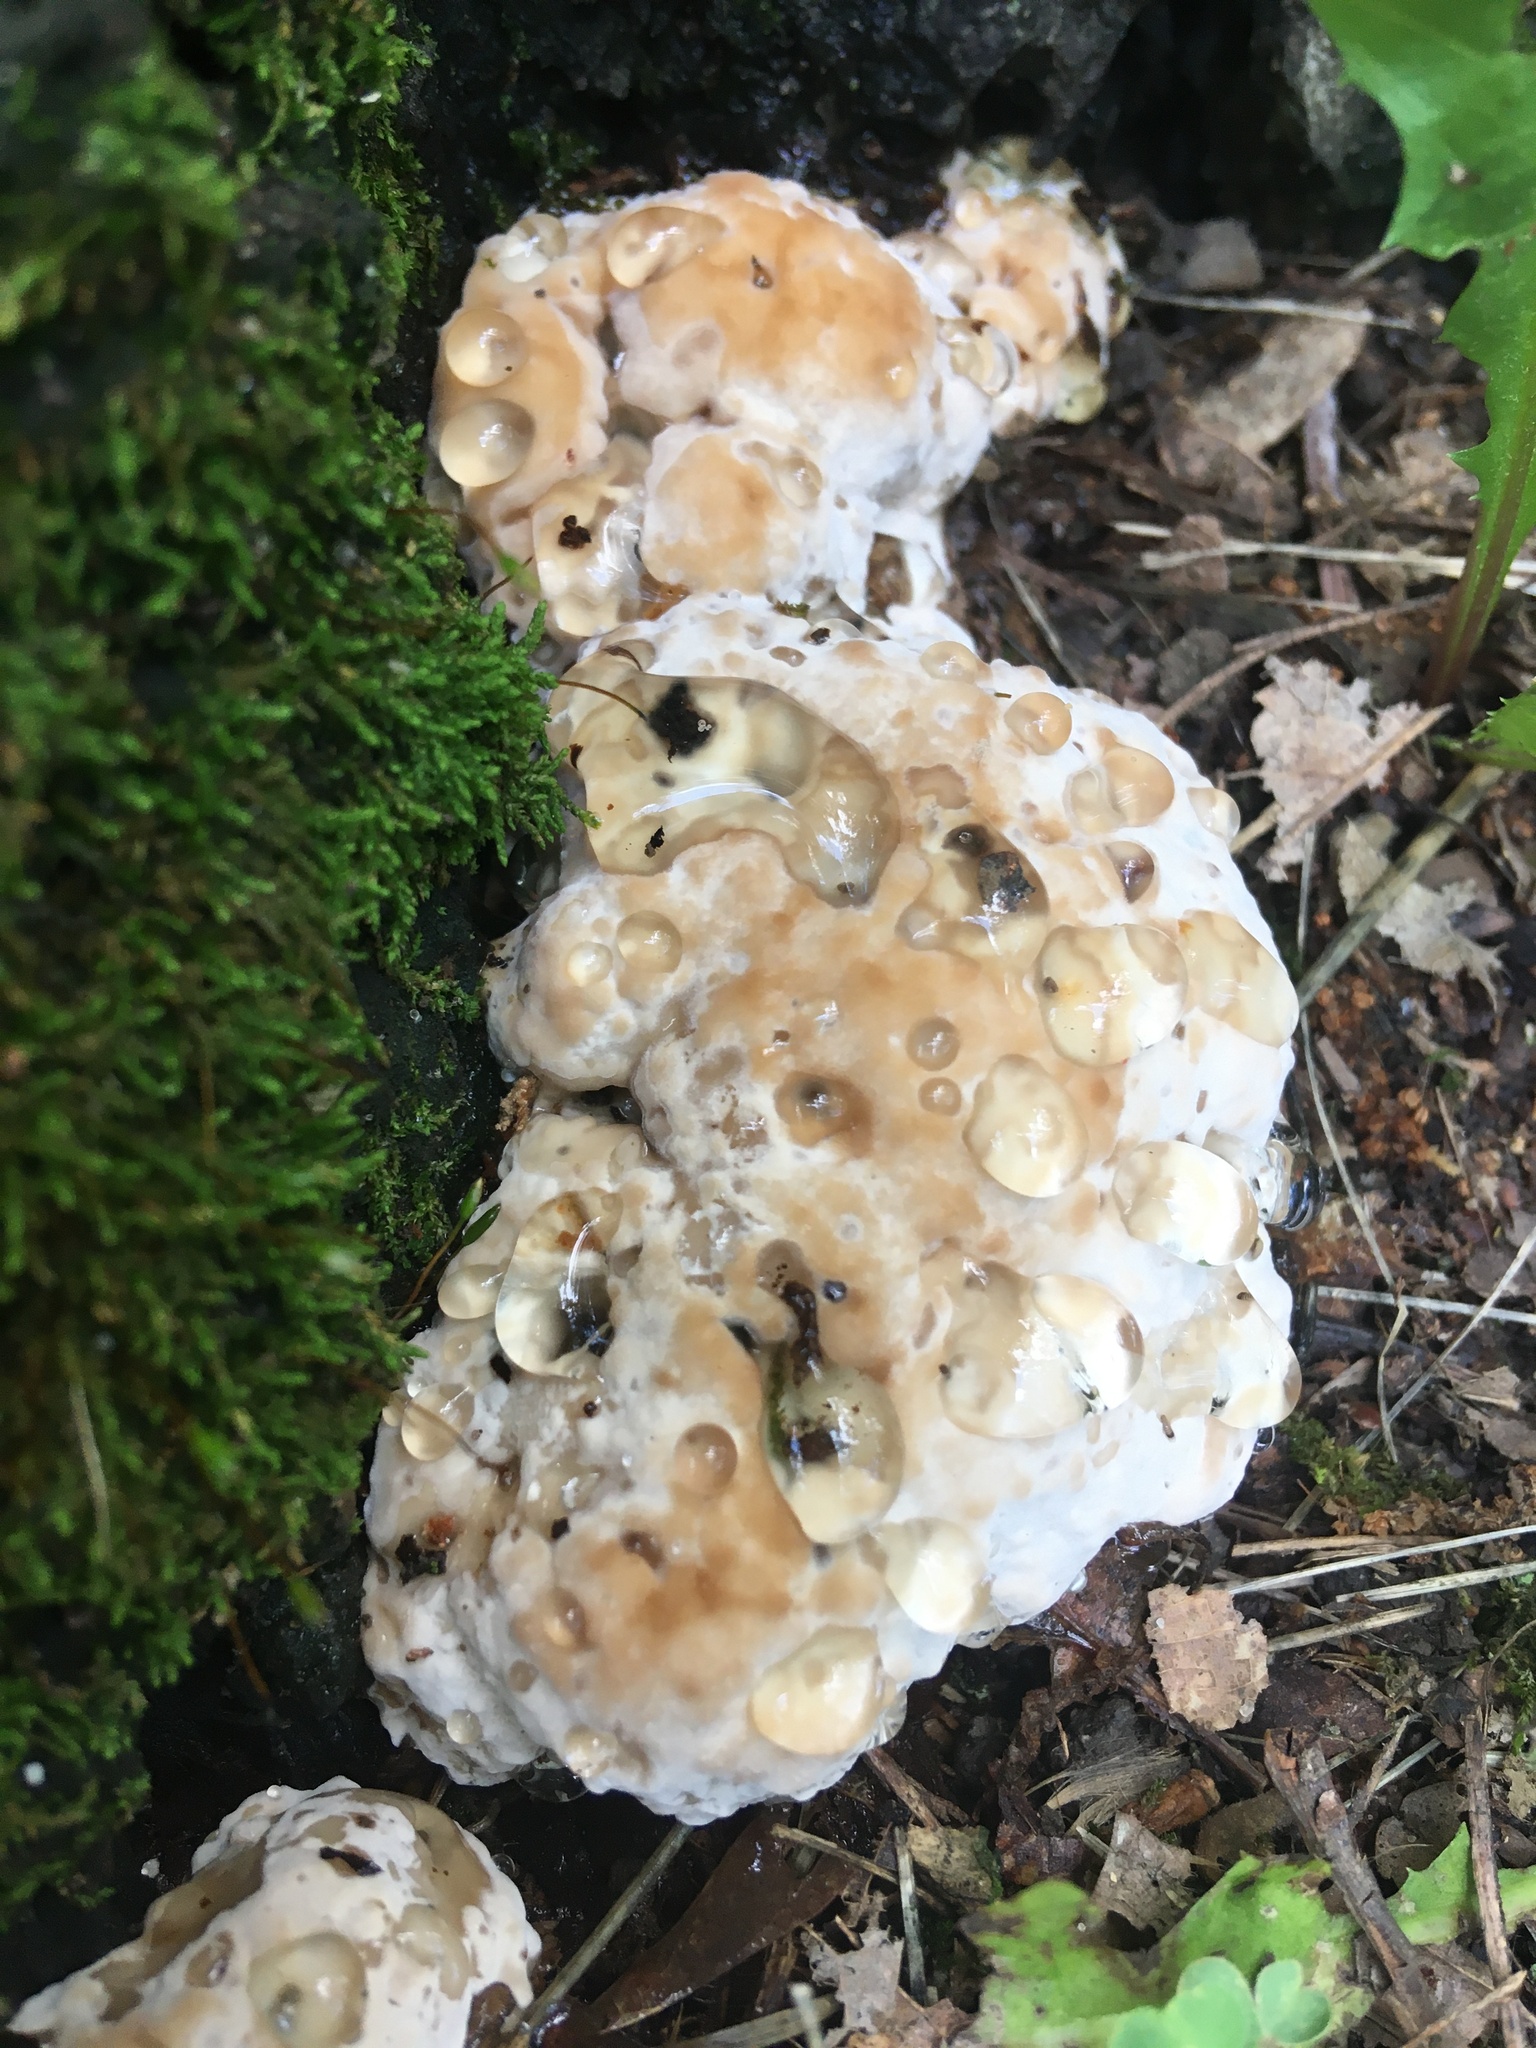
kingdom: Fungi
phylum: Basidiomycota
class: Agaricomycetes
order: Polyporales
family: Fomitopsidaceae
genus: Niveoporofomes
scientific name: Niveoporofomes spraguei
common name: Green cheese polypore
